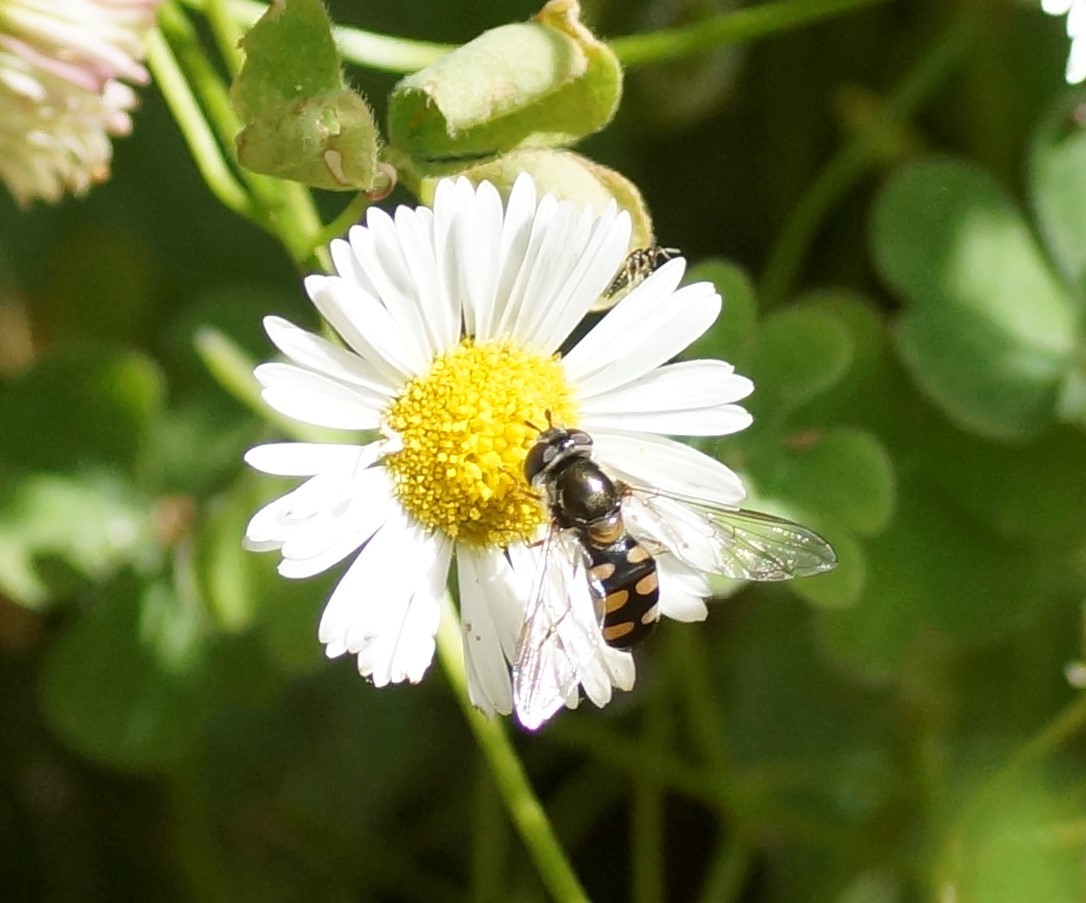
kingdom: Animalia
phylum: Arthropoda
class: Insecta
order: Diptera
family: Syrphidae
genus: Melangyna
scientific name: Melangyna viridiceps
